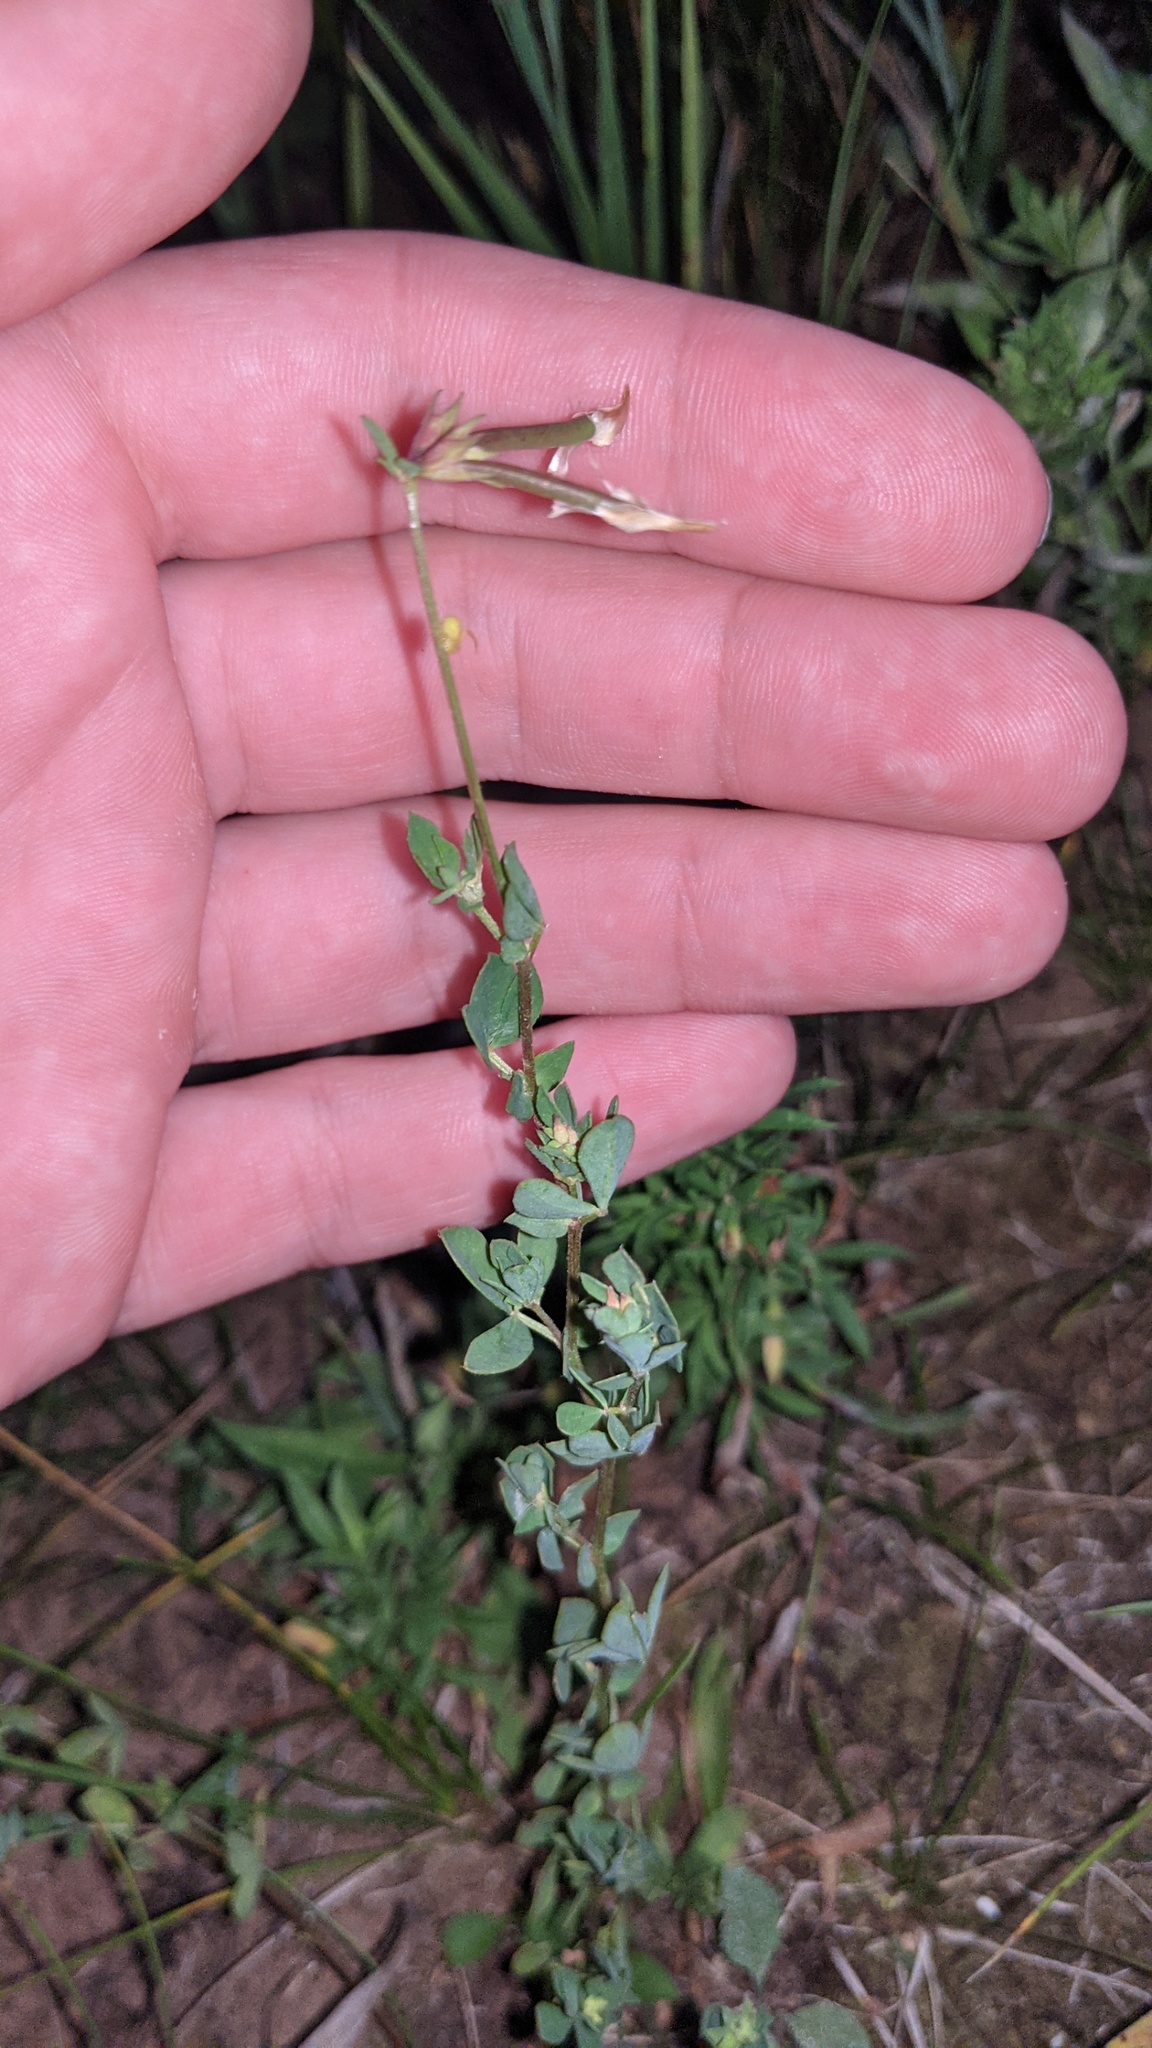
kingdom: Plantae
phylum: Tracheophyta
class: Magnoliopsida
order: Fabales
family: Fabaceae
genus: Lotus
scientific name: Lotus corniculatus
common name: Common bird's-foot-trefoil
